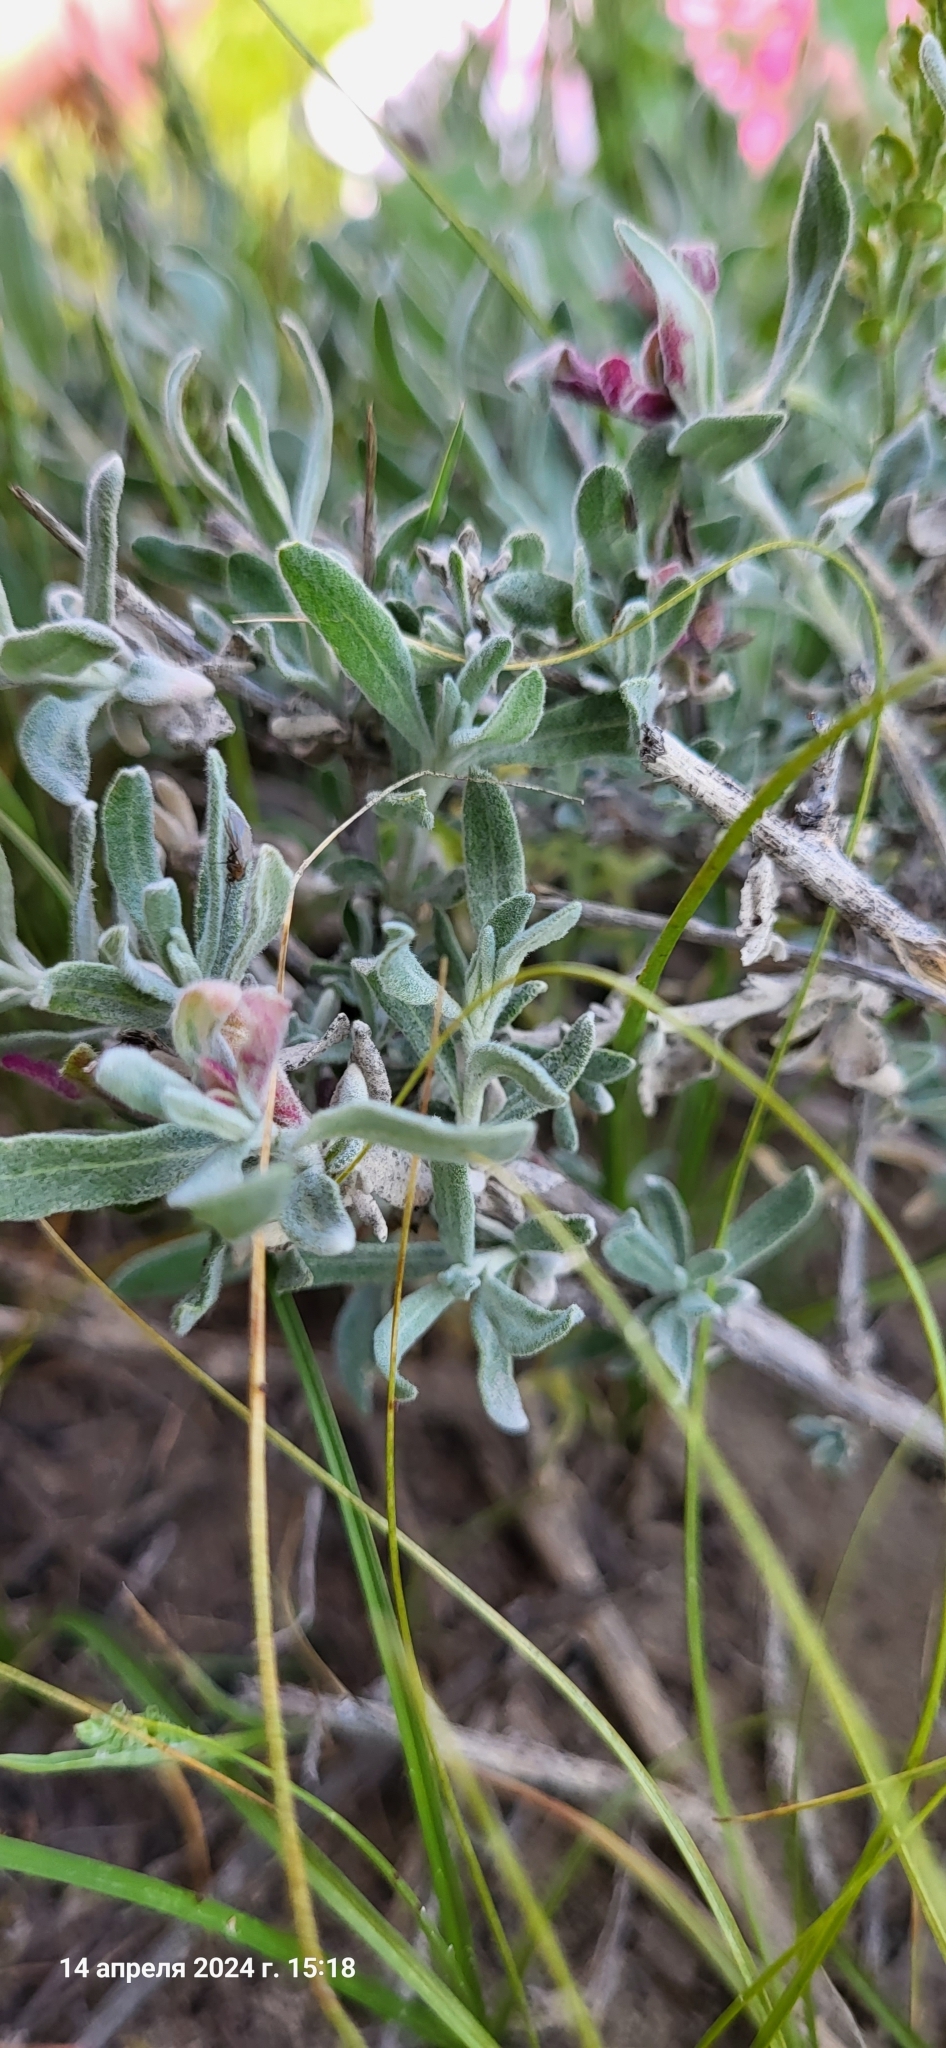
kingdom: Plantae
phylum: Tracheophyta
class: Magnoliopsida
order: Caryophyllales
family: Amaranthaceae
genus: Krascheninnikovia
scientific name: Krascheninnikovia ceratoides
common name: Pamirian winterfat
